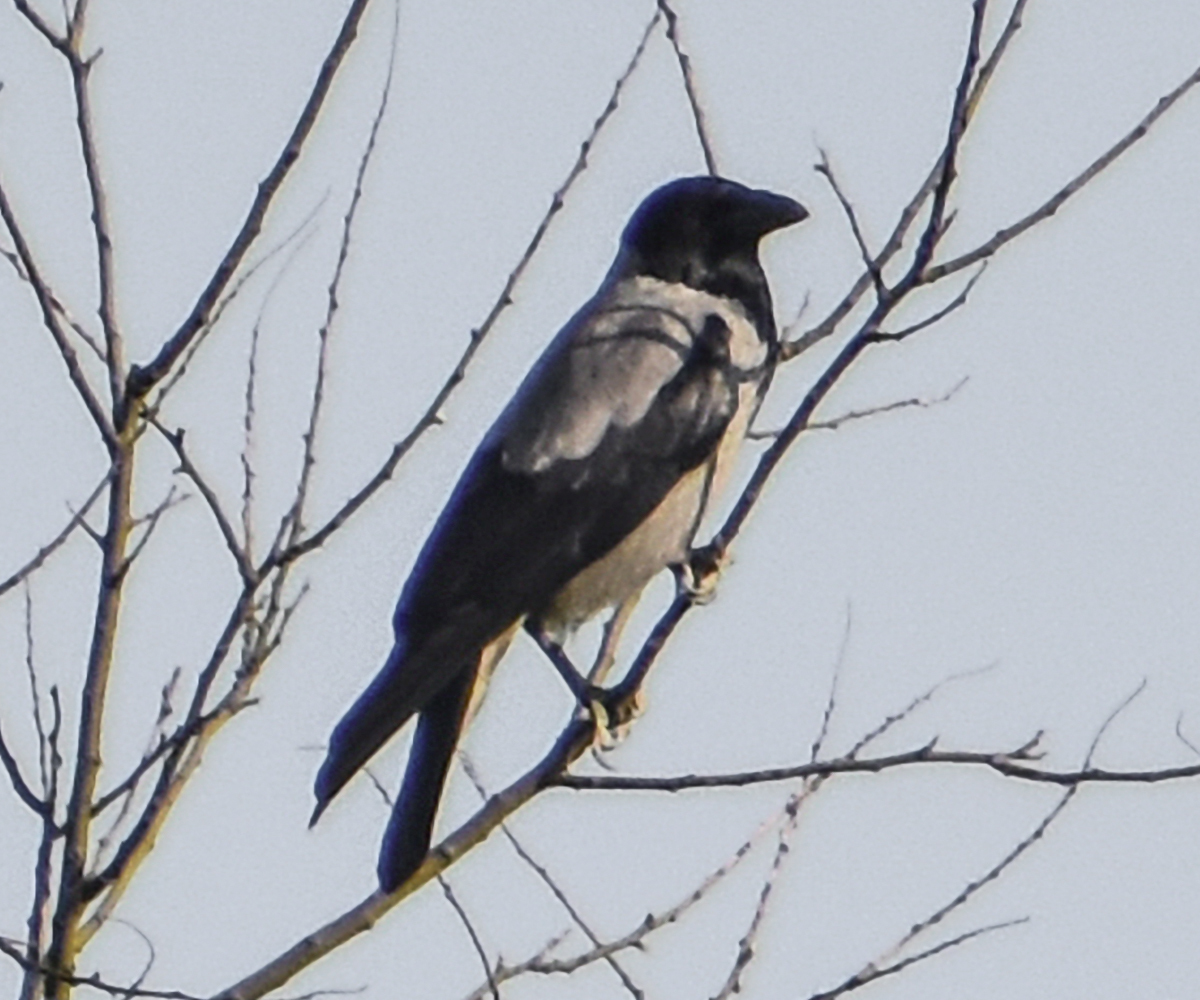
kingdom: Animalia
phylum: Chordata
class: Aves
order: Passeriformes
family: Corvidae
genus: Corvus
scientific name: Corvus cornix
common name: Hooded crow
